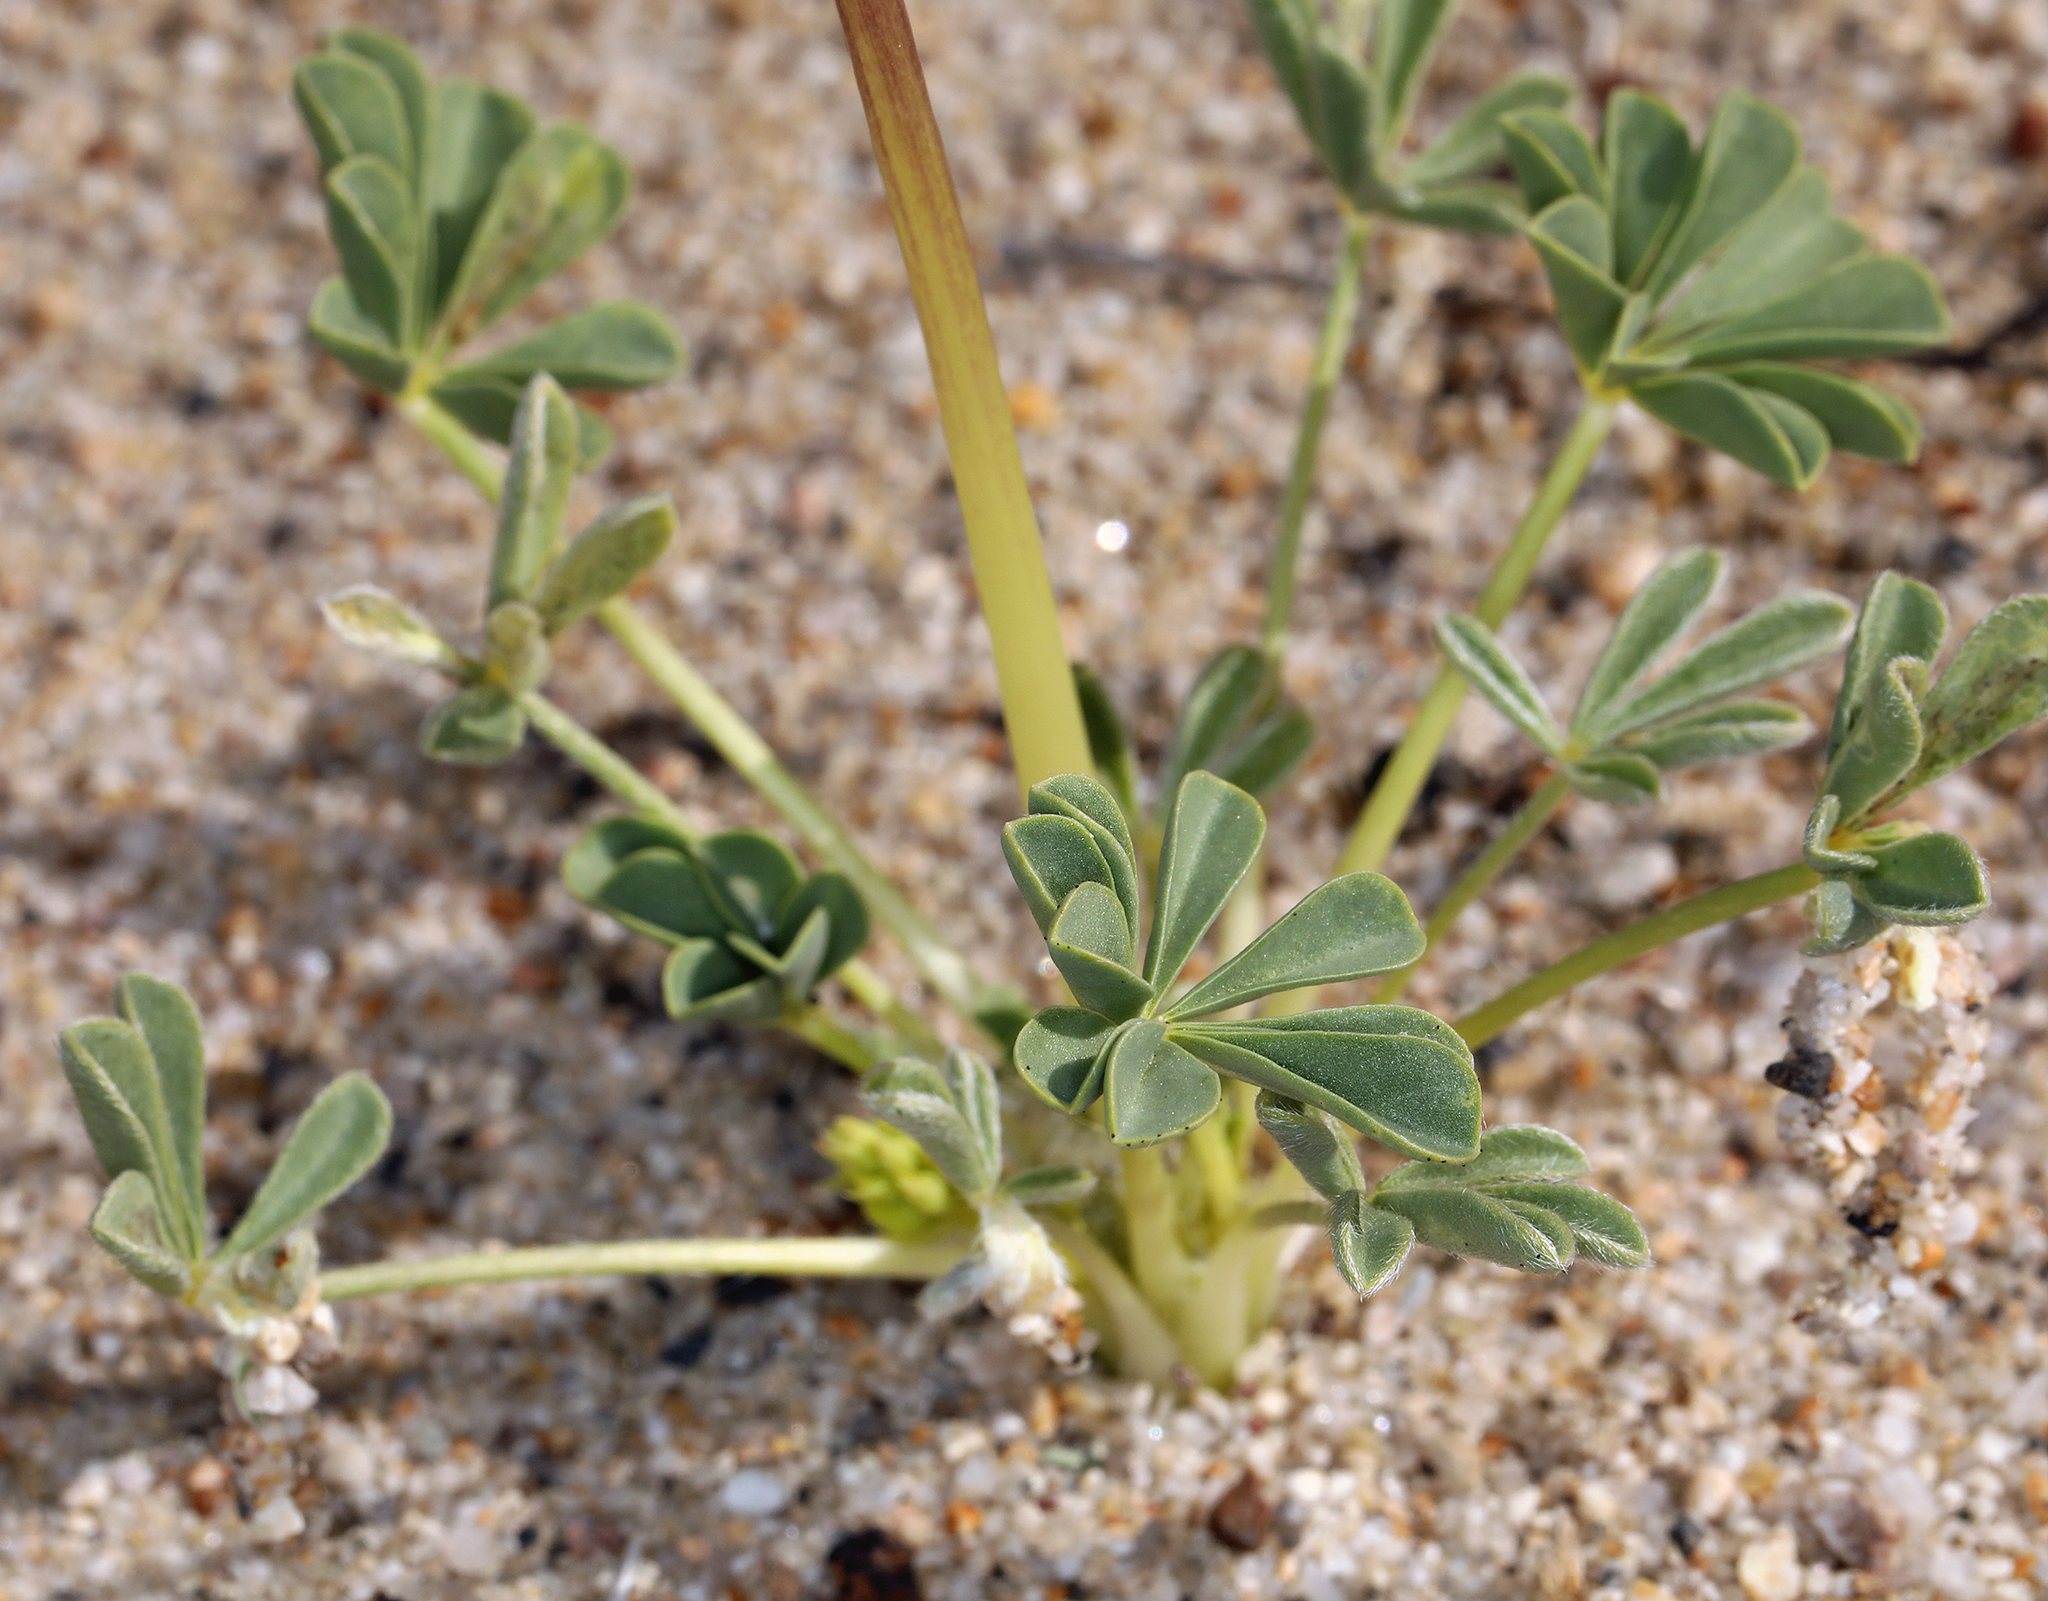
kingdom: Plantae
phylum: Tracheophyta
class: Magnoliopsida
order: Fabales
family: Fabaceae
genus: Lupinus
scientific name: Lupinus
